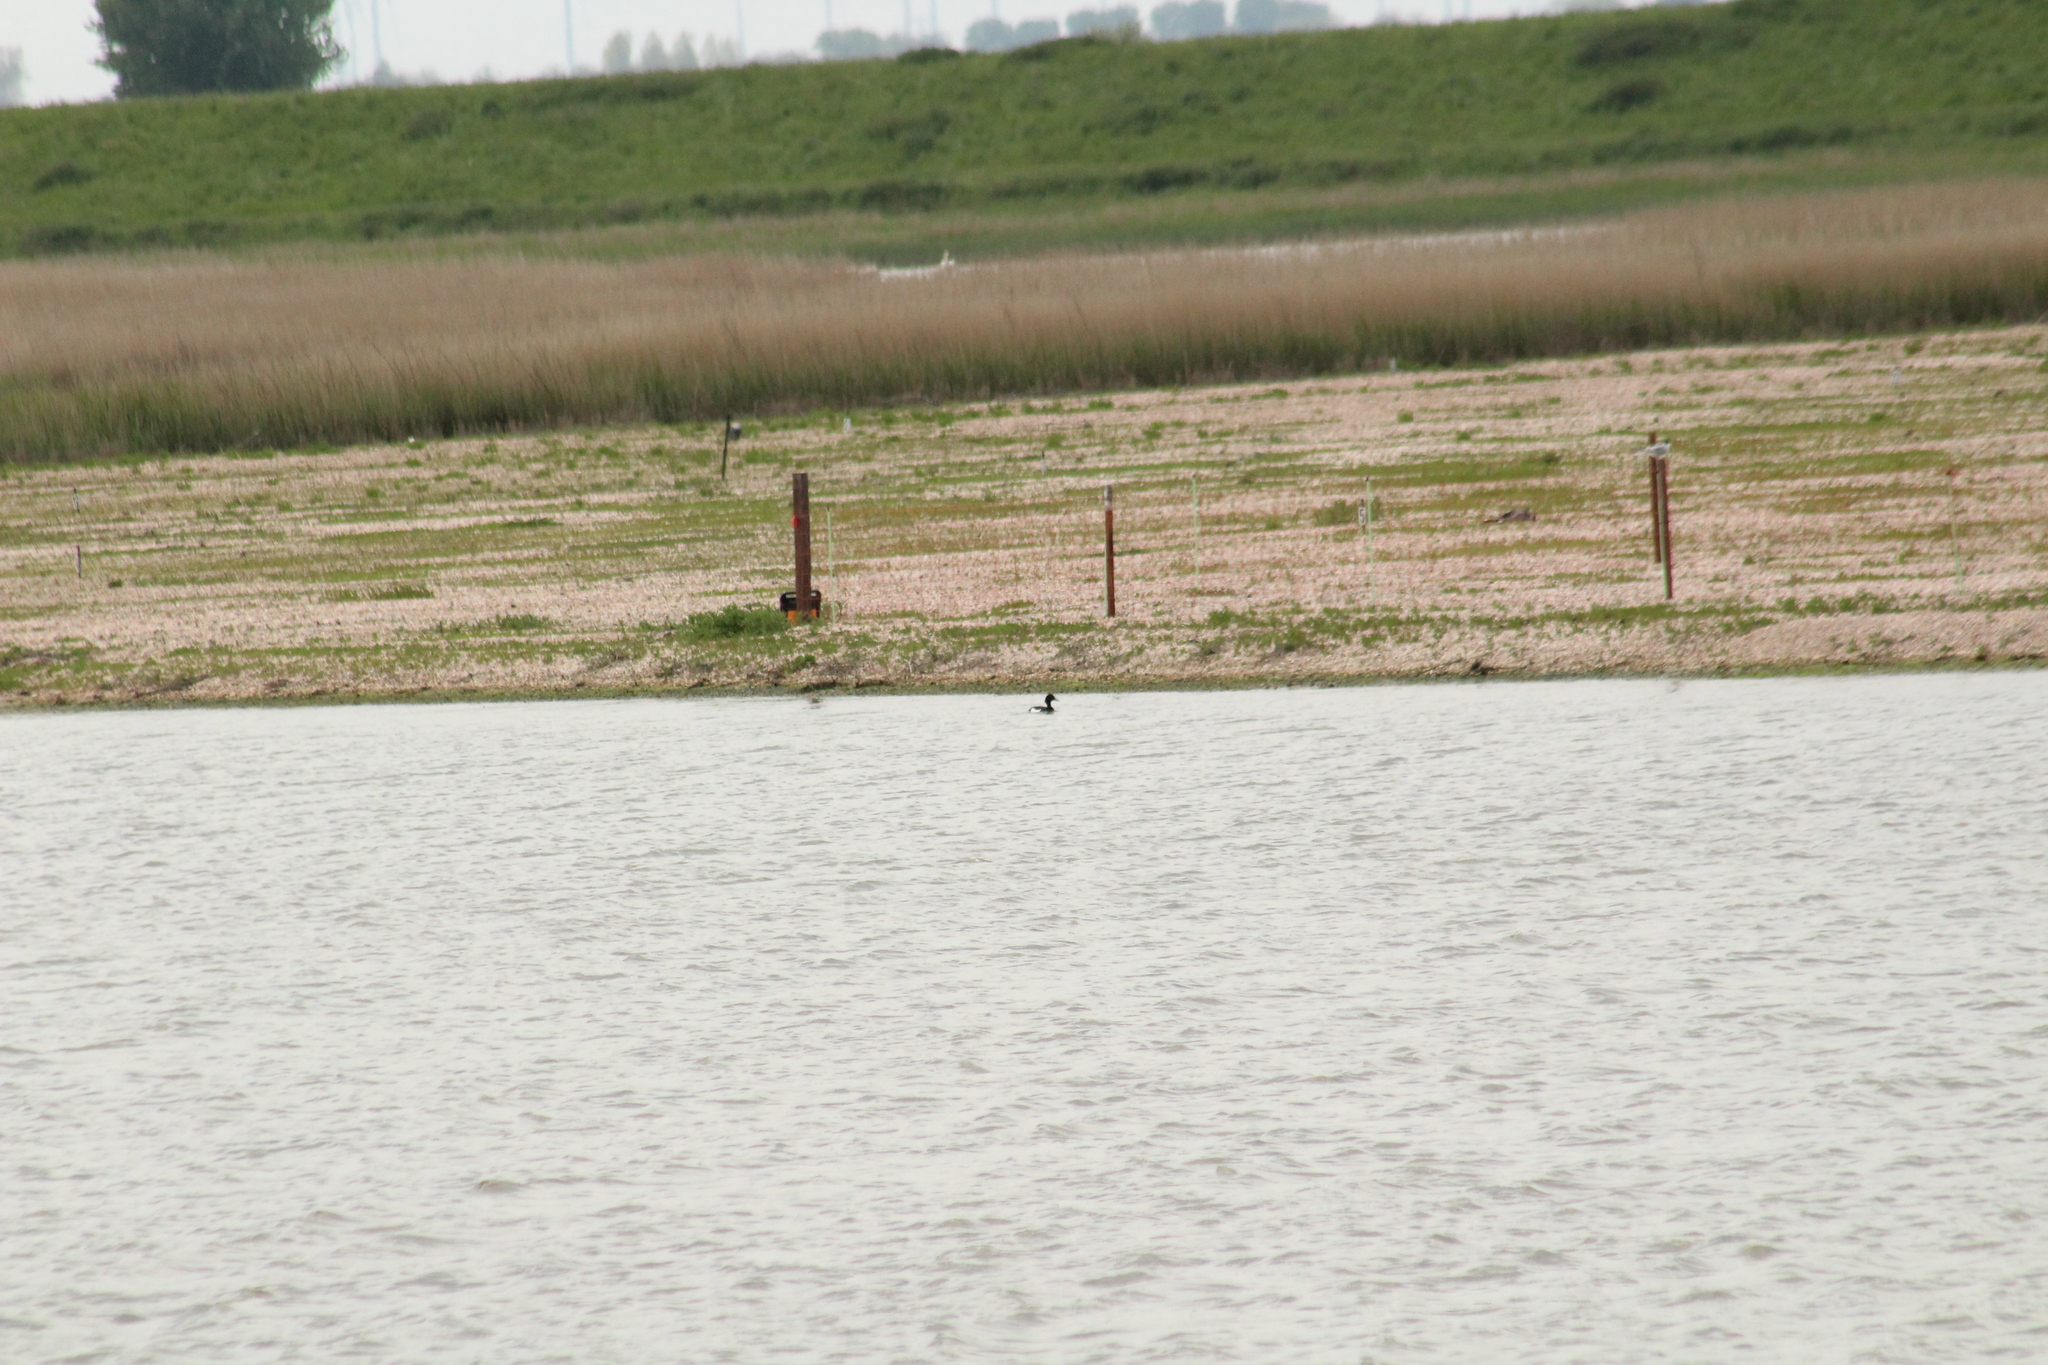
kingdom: Animalia
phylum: Chordata
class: Aves
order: Anseriformes
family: Anatidae
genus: Aythya
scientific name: Aythya fuligula
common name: Tufted duck
